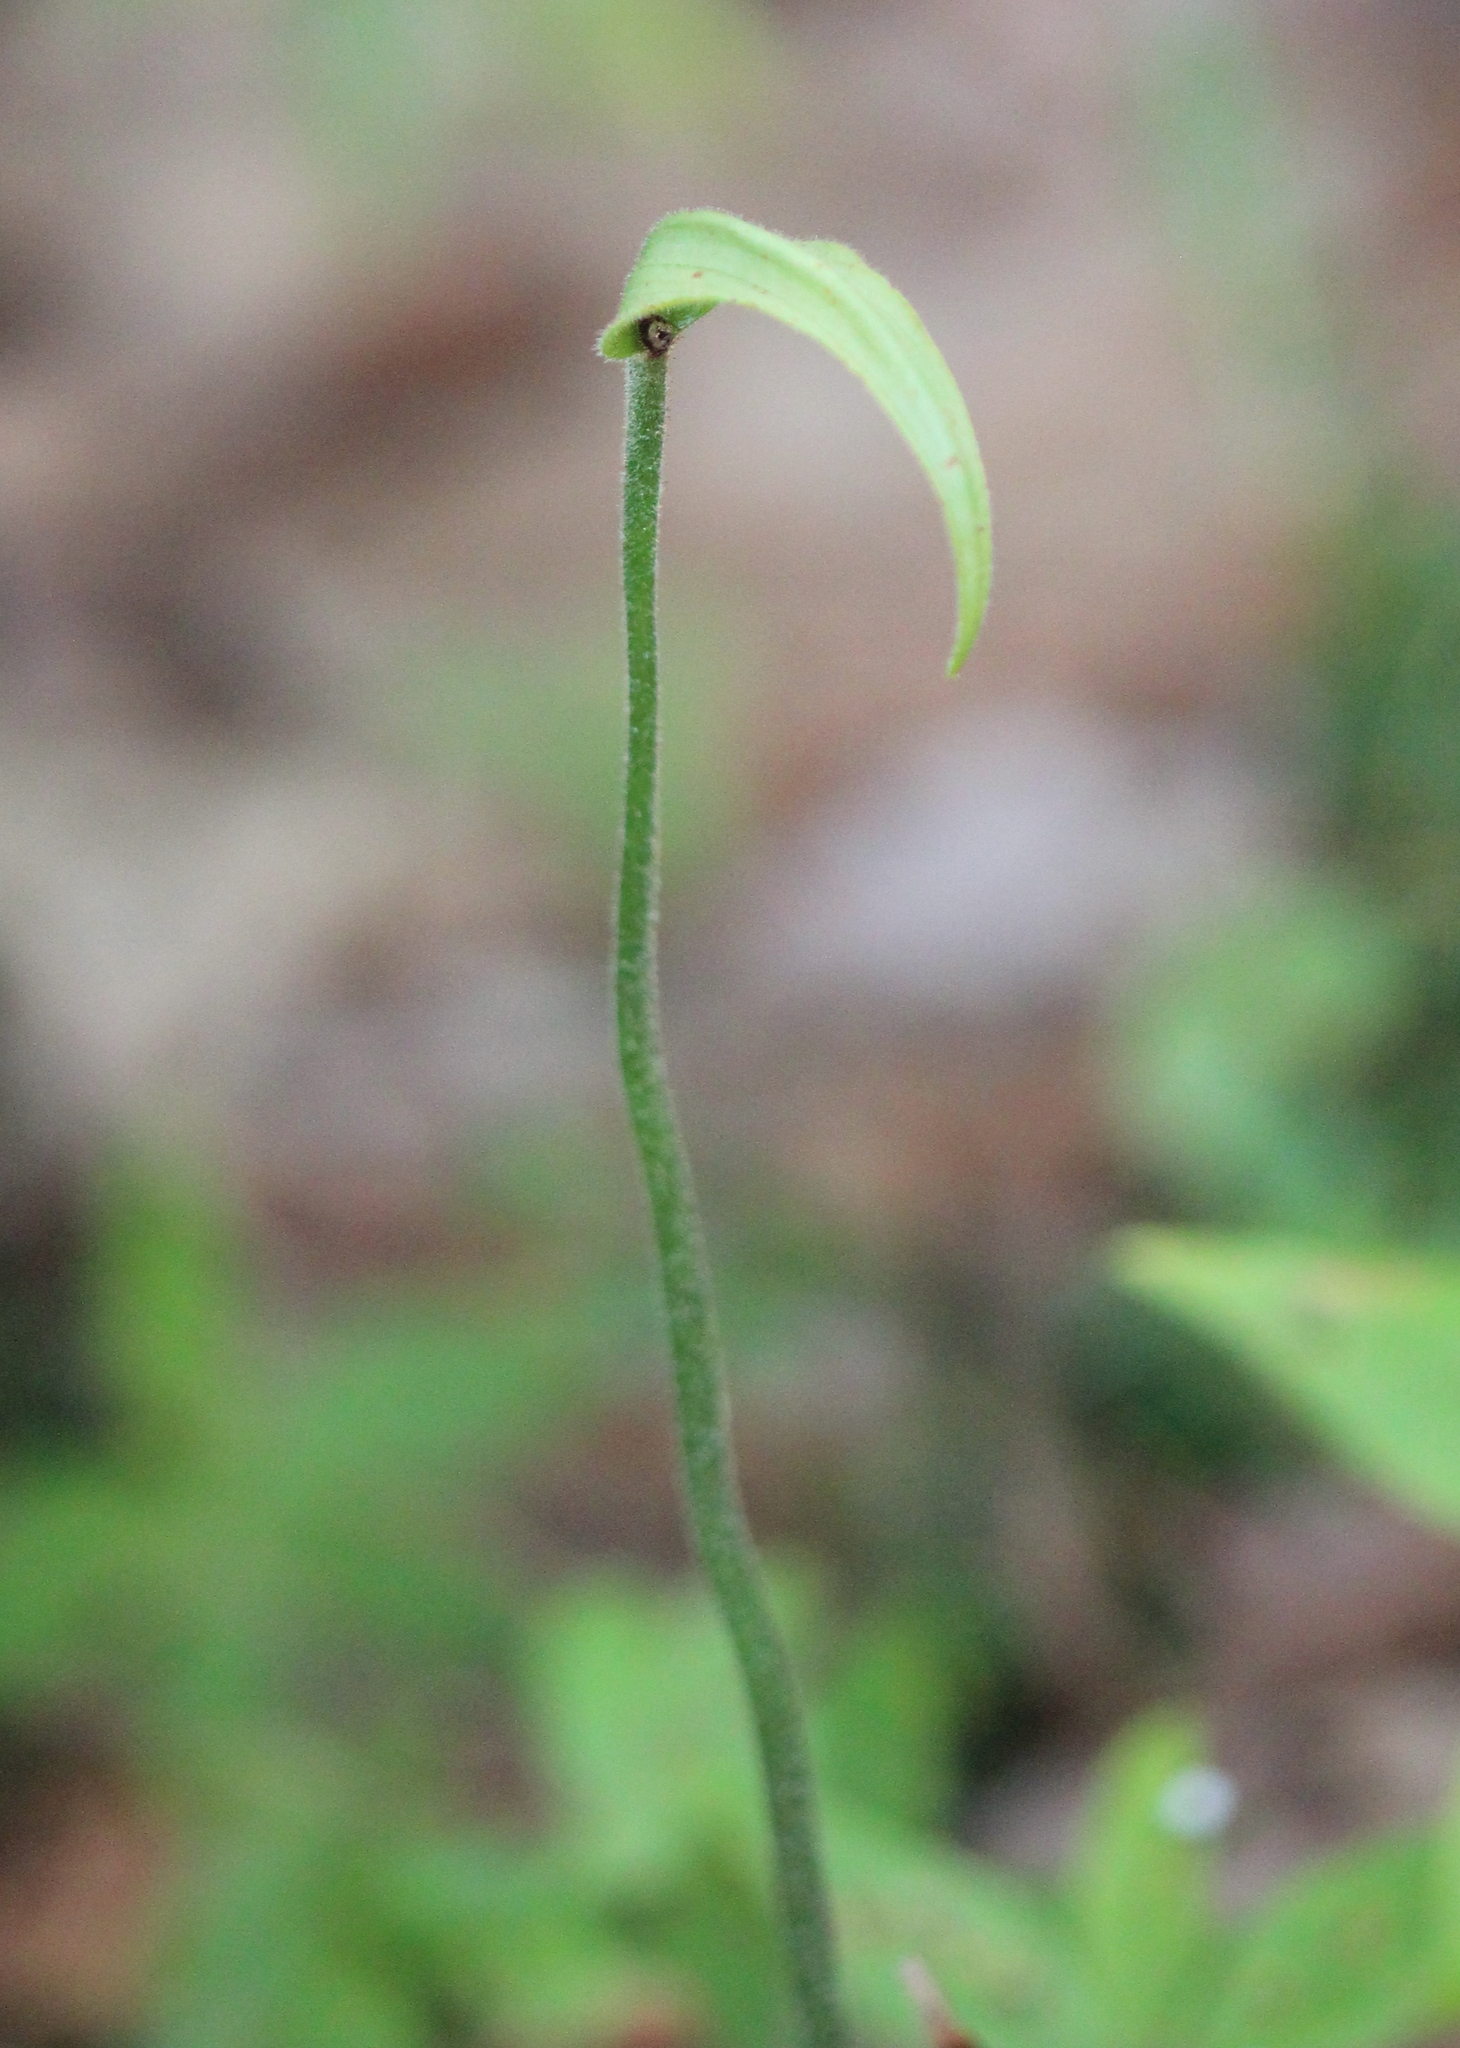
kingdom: Plantae
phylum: Tracheophyta
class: Liliopsida
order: Asparagales
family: Orchidaceae
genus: Cypripedium
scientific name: Cypripedium acaule
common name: Pink lady's-slipper
